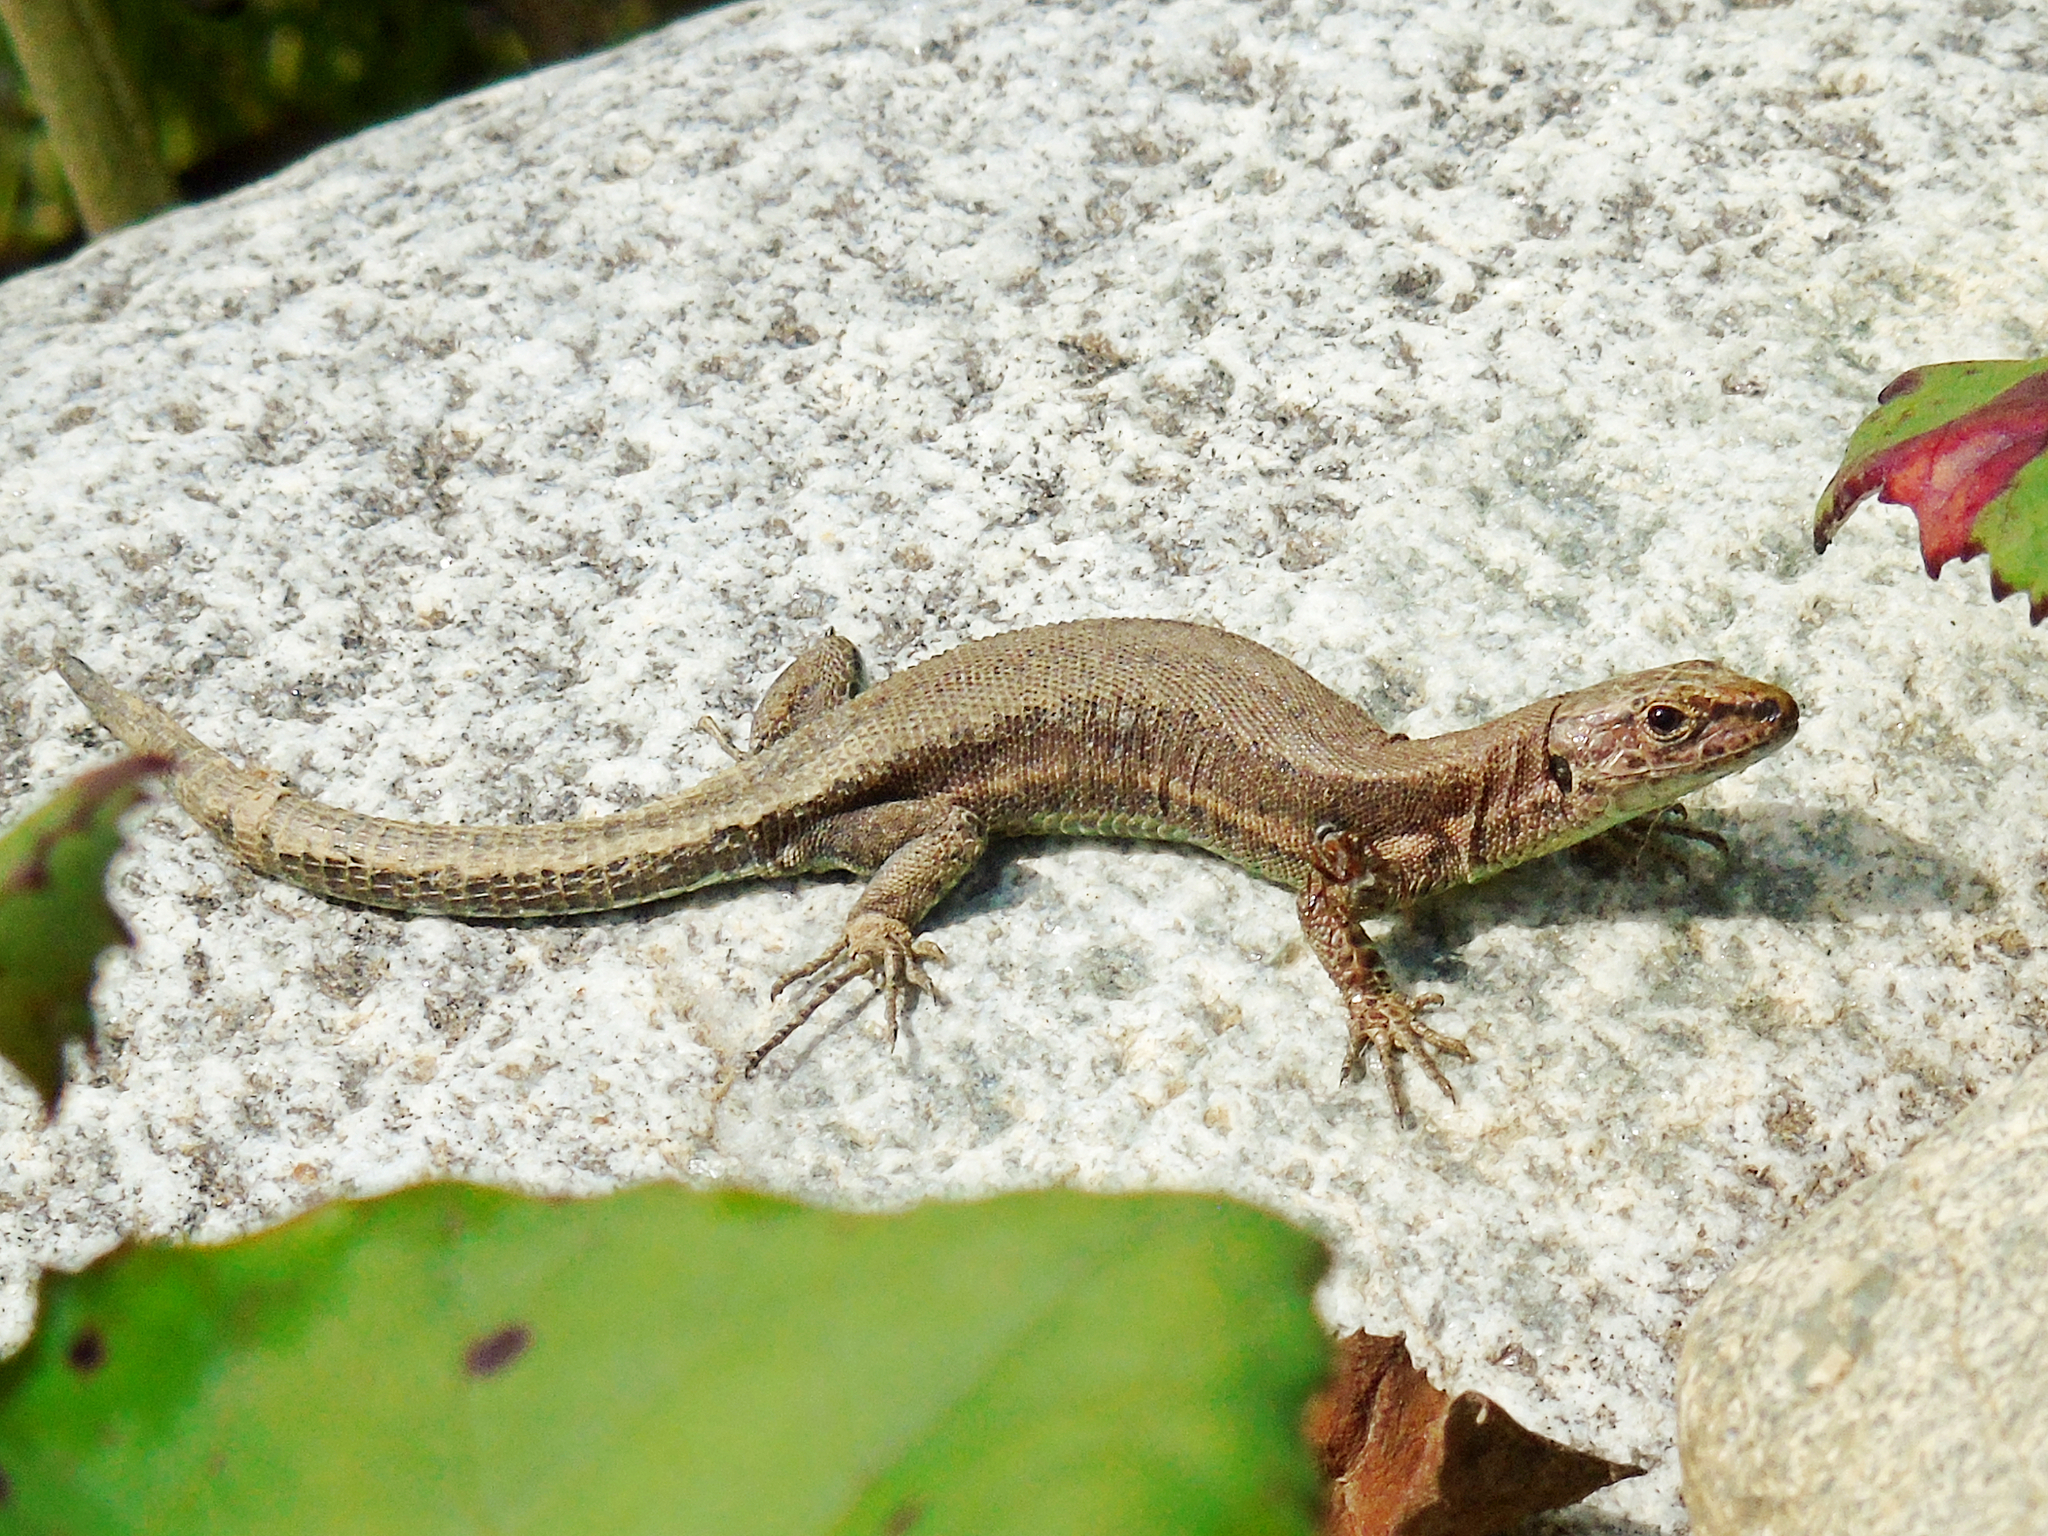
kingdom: Animalia
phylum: Chordata
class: Squamata
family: Lacertidae
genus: Darevskia
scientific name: Darevskia derjugini
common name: Derjugin's lizard
